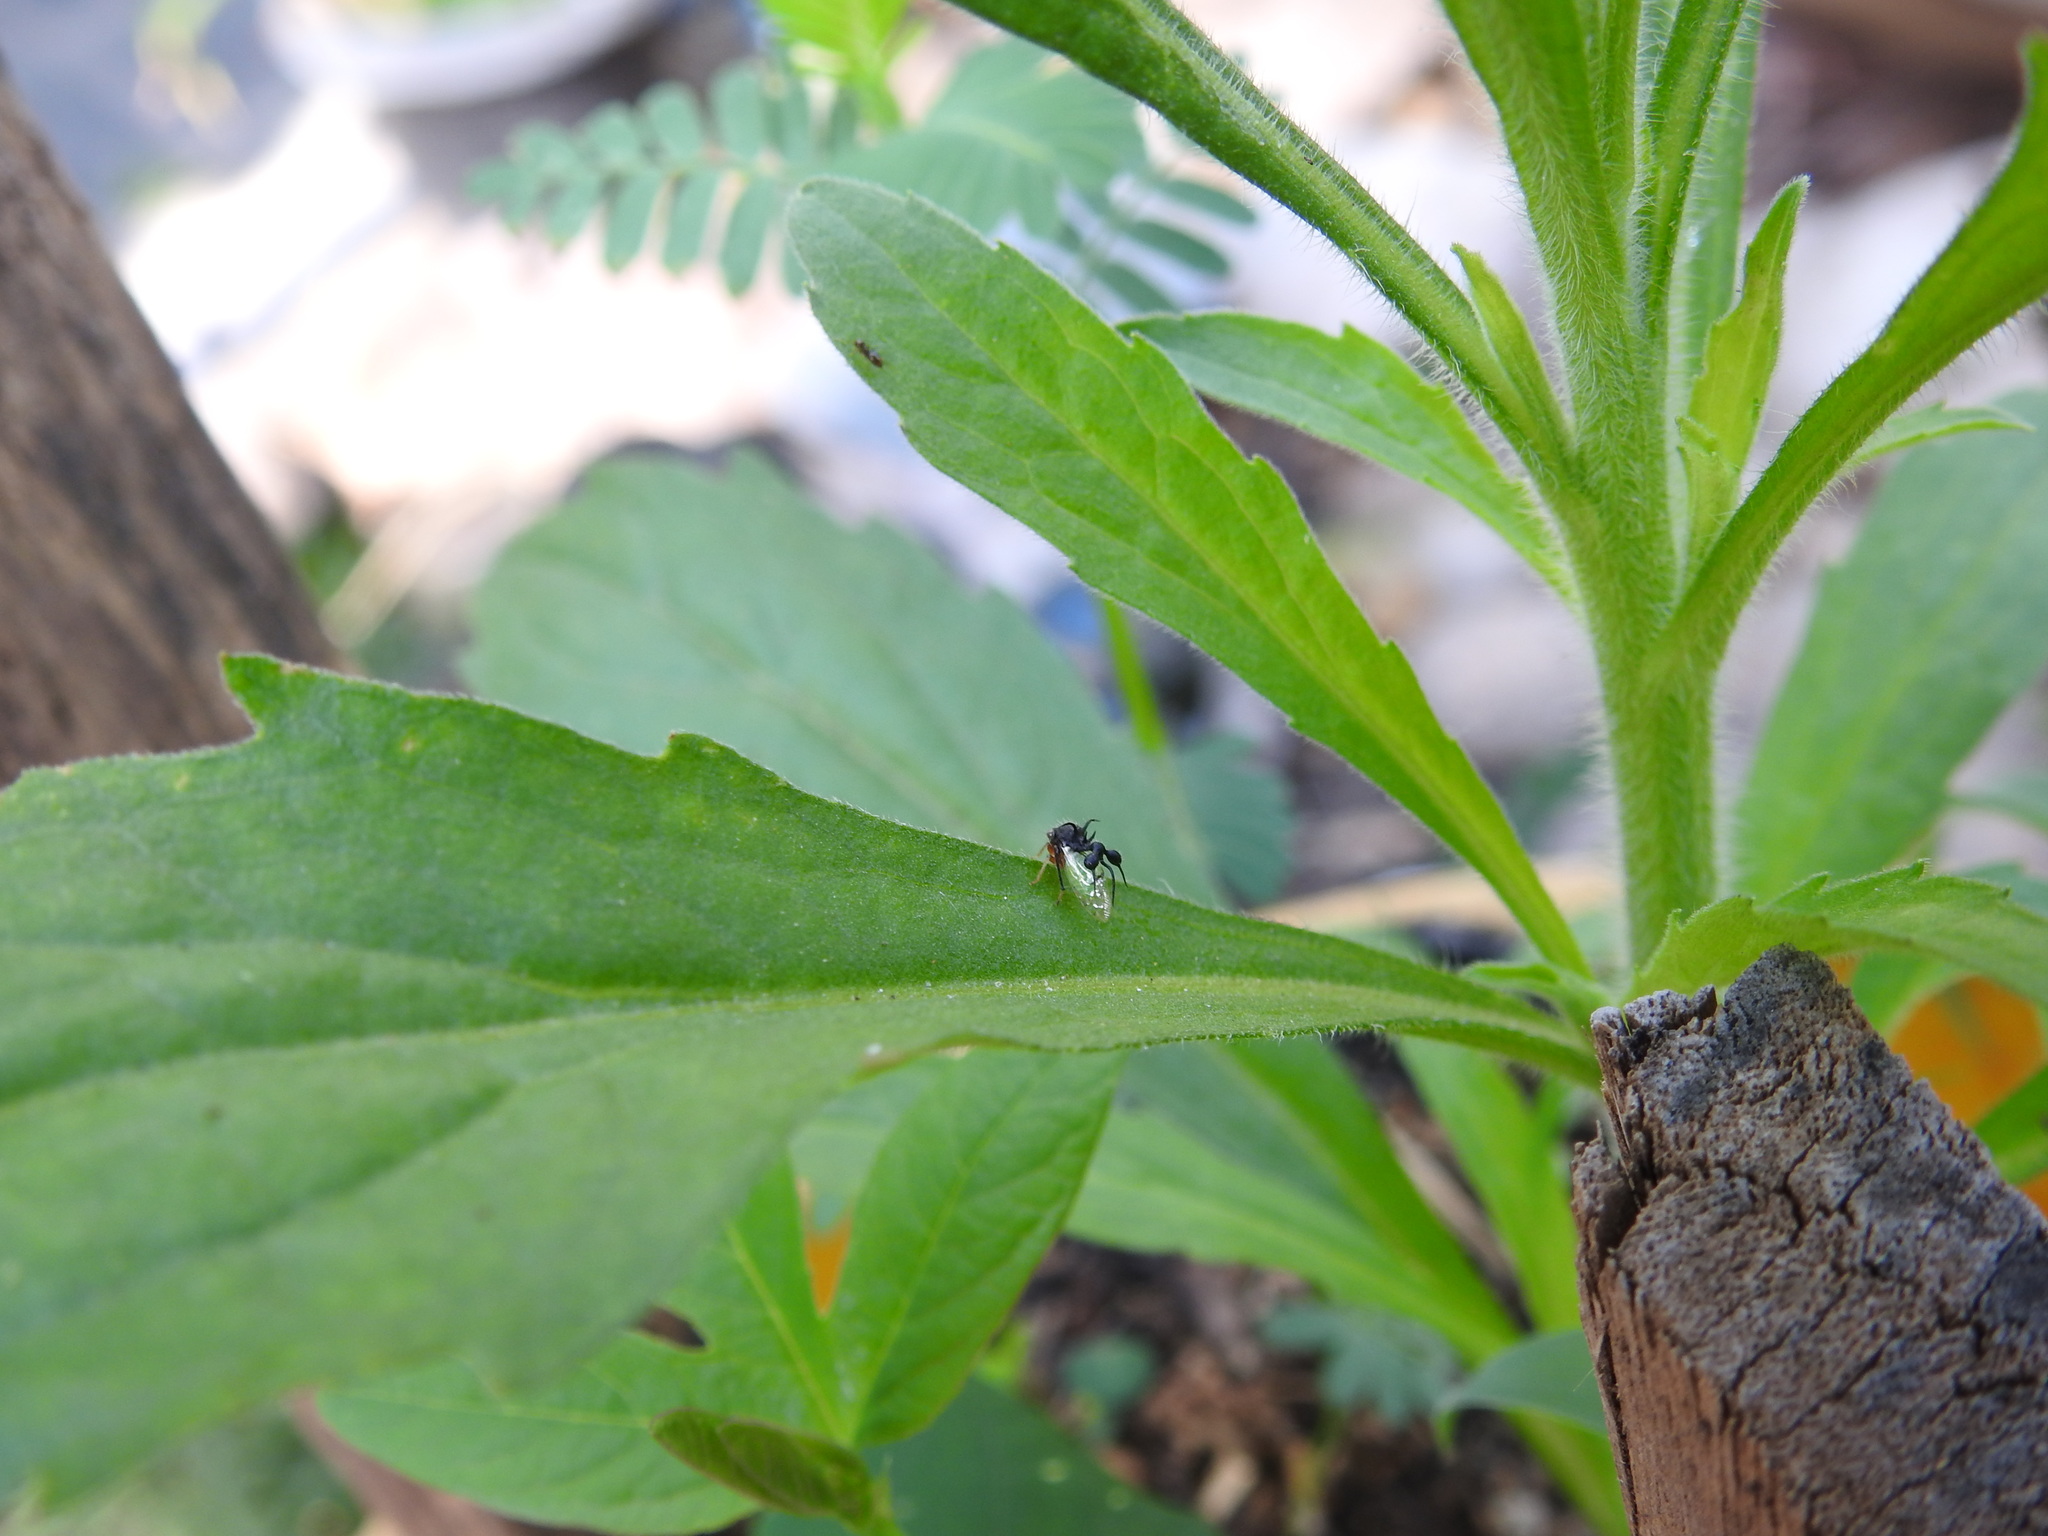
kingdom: Animalia
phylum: Arthropoda
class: Insecta
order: Hemiptera
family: Membracidae
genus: Cyphonia
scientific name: Cyphonia clavata
